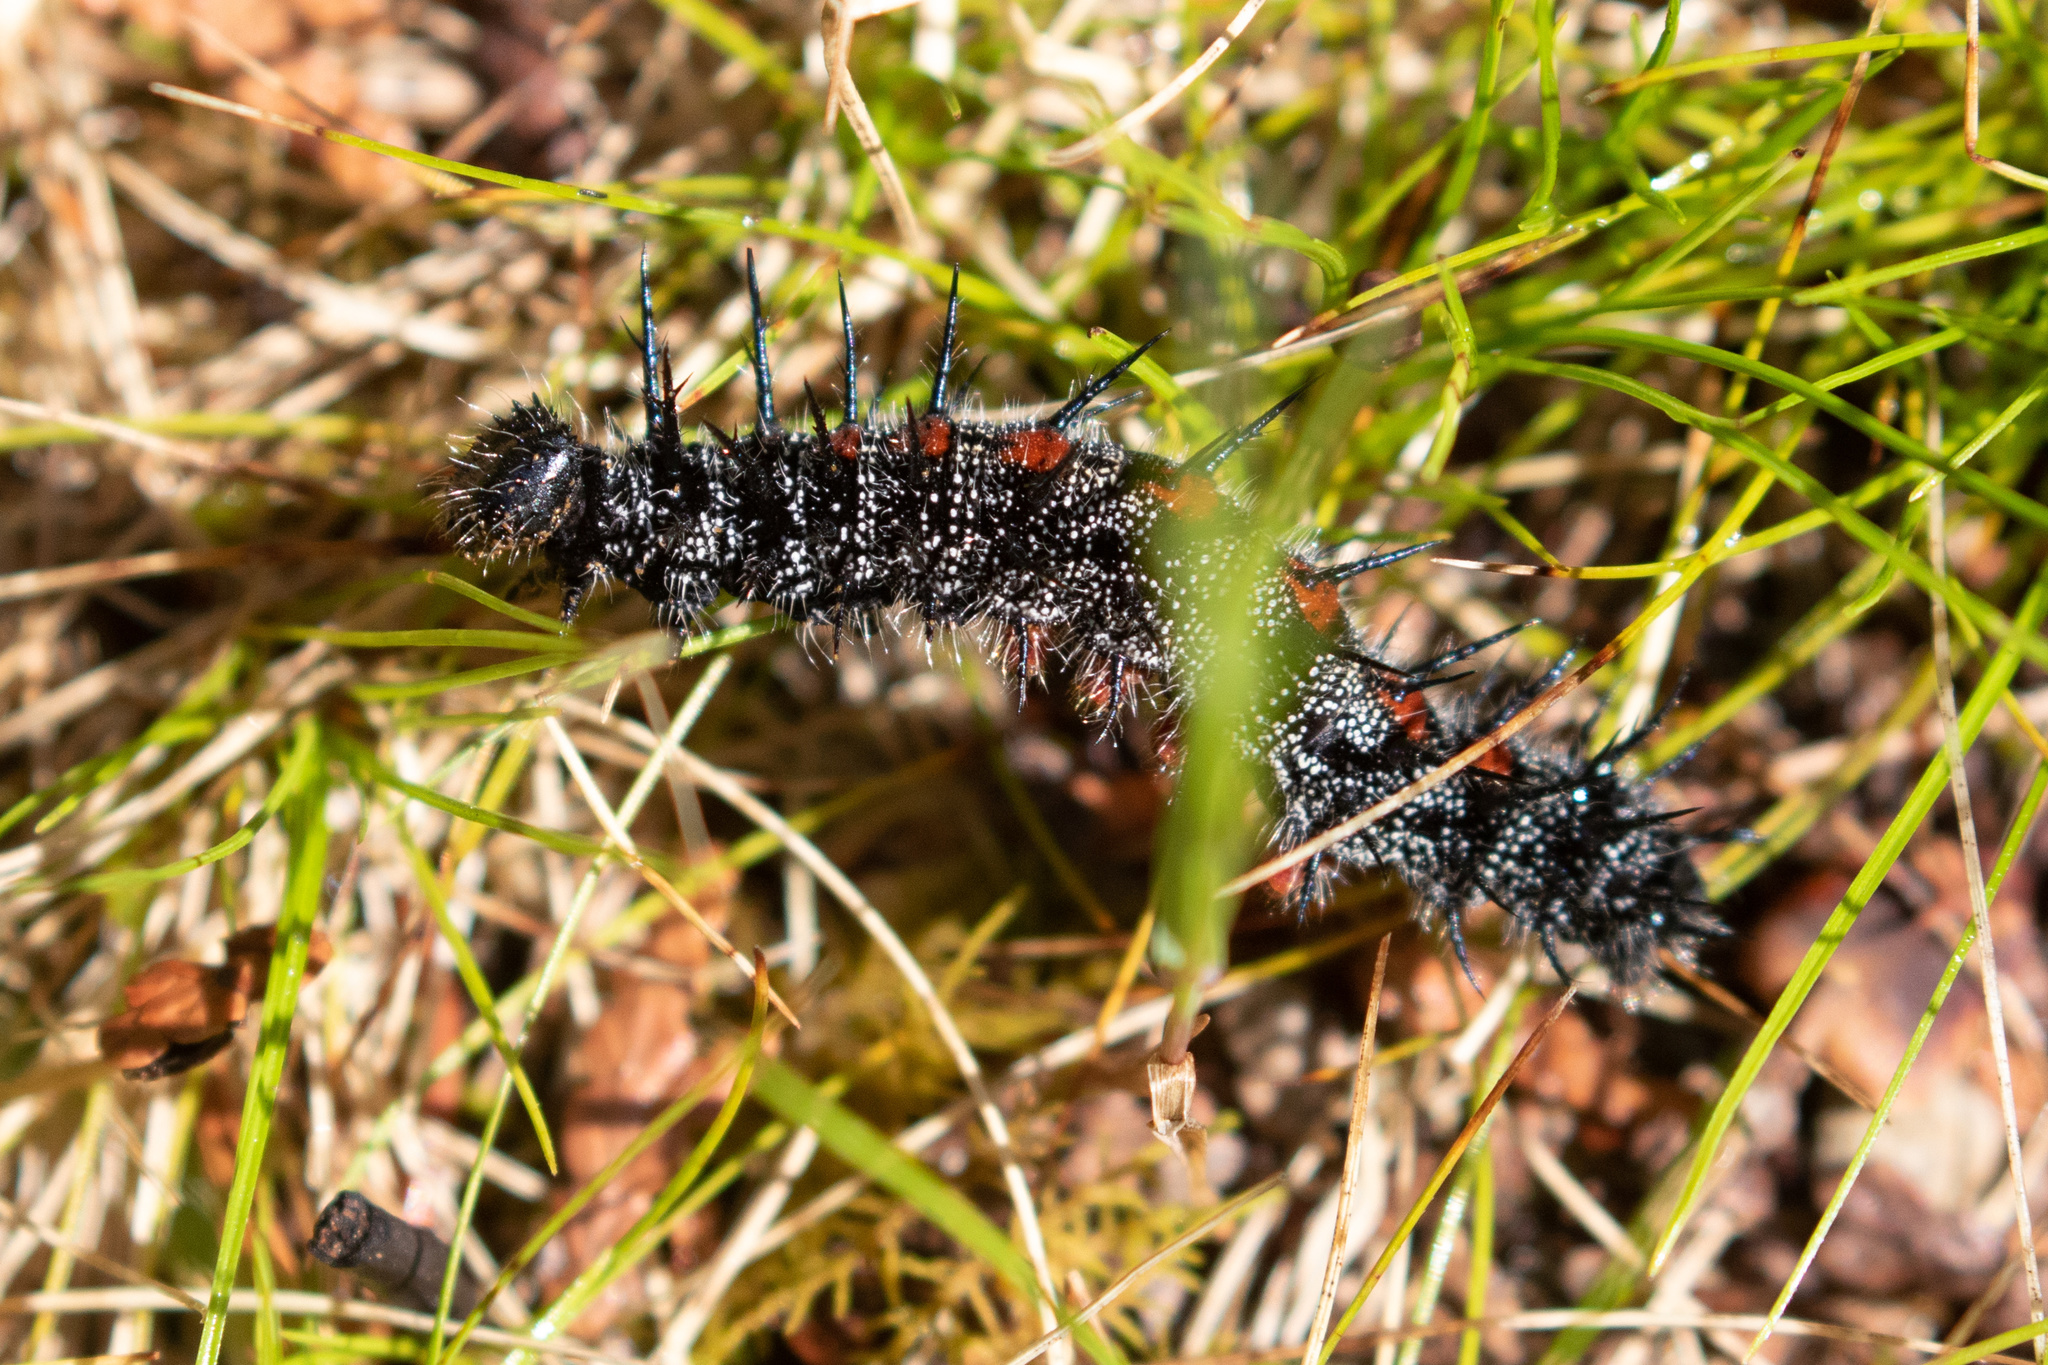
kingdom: Animalia
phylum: Arthropoda
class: Insecta
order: Lepidoptera
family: Nymphalidae
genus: Nymphalis
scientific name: Nymphalis antiopa
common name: Camberwell beauty
